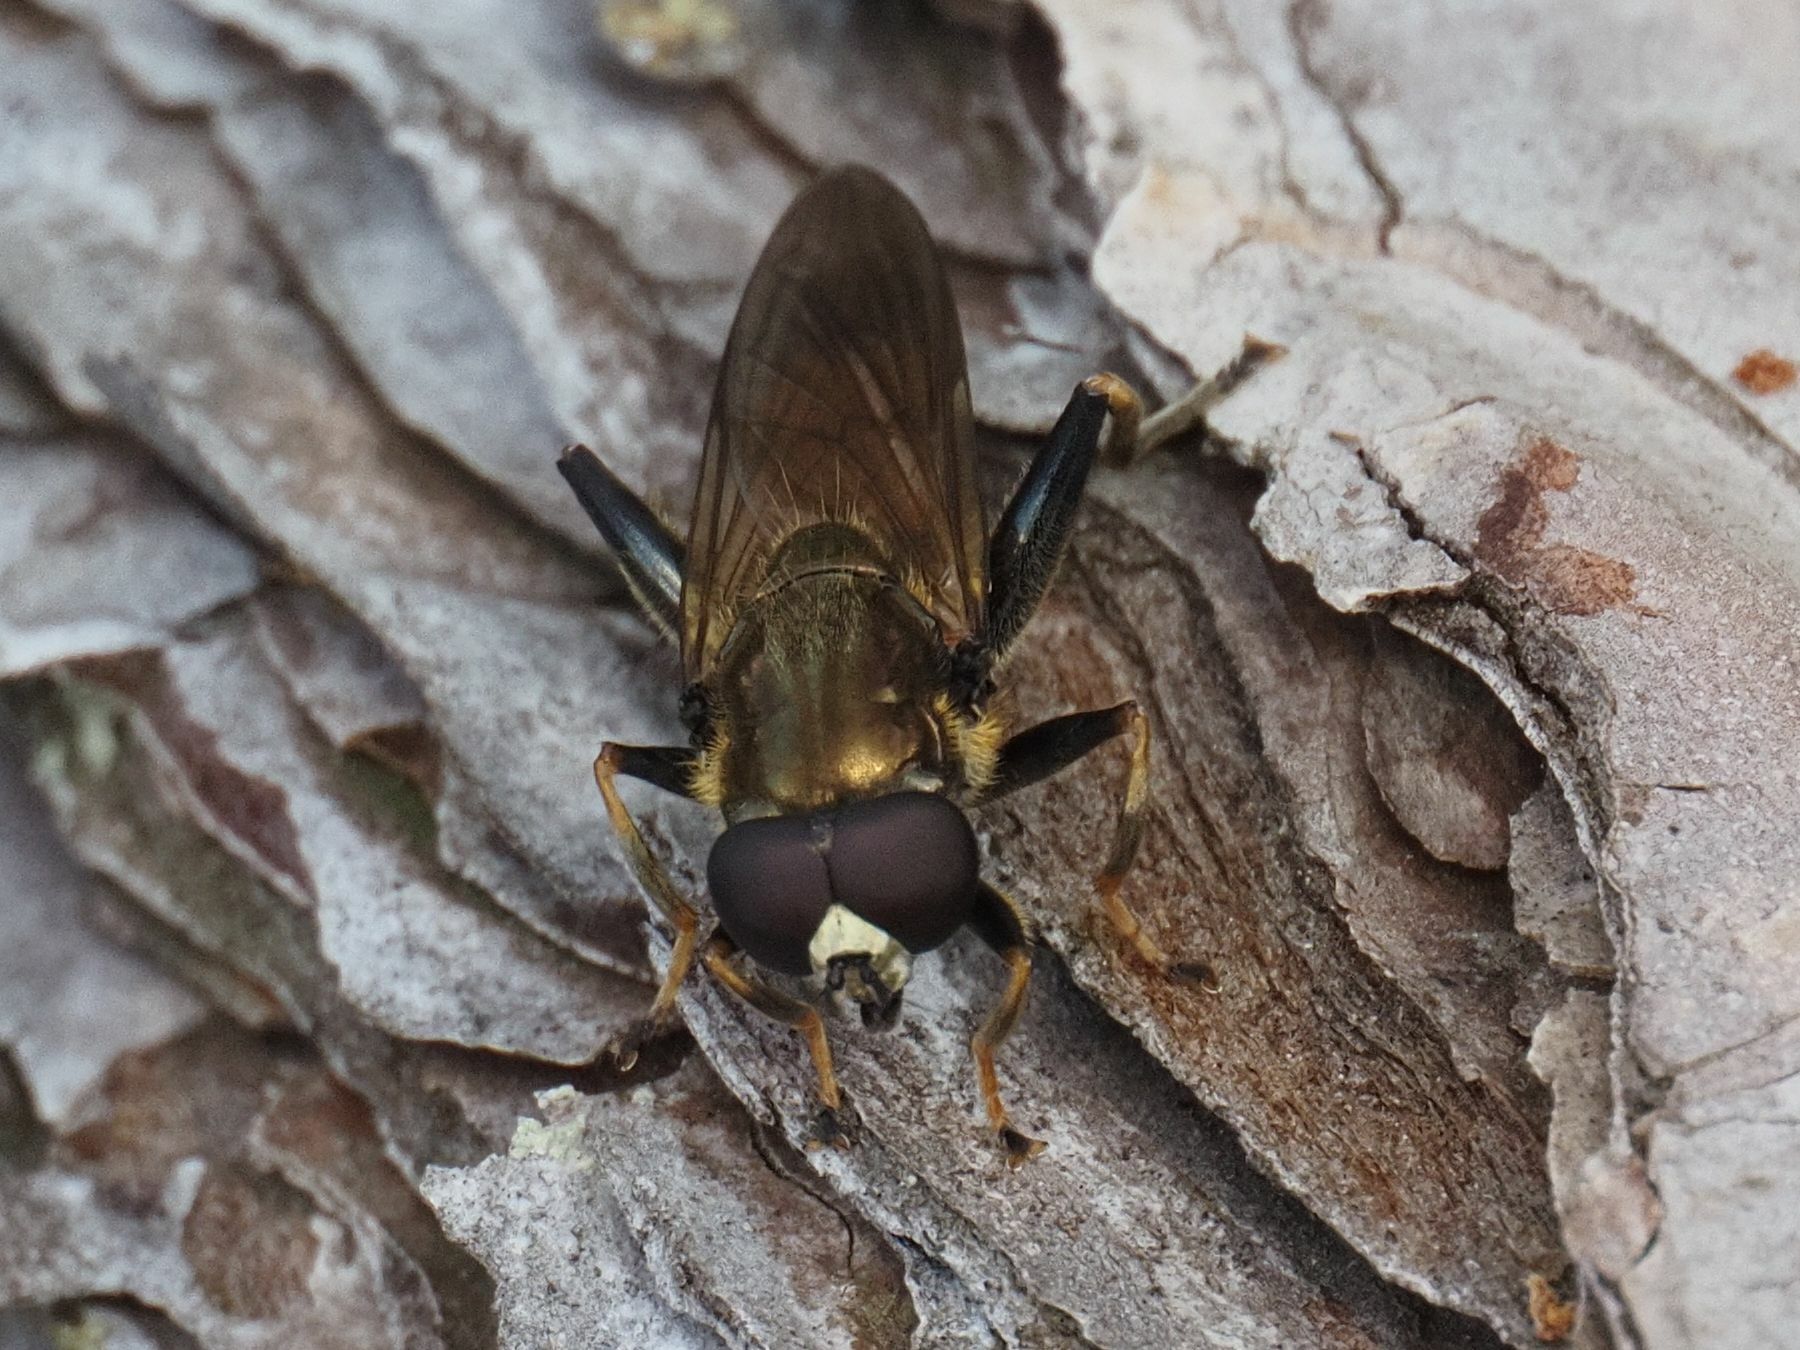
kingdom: Animalia
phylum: Arthropoda
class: Insecta
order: Diptera
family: Syrphidae
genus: Xylota
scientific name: Xylota segnis
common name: Brown-toed forest fly
